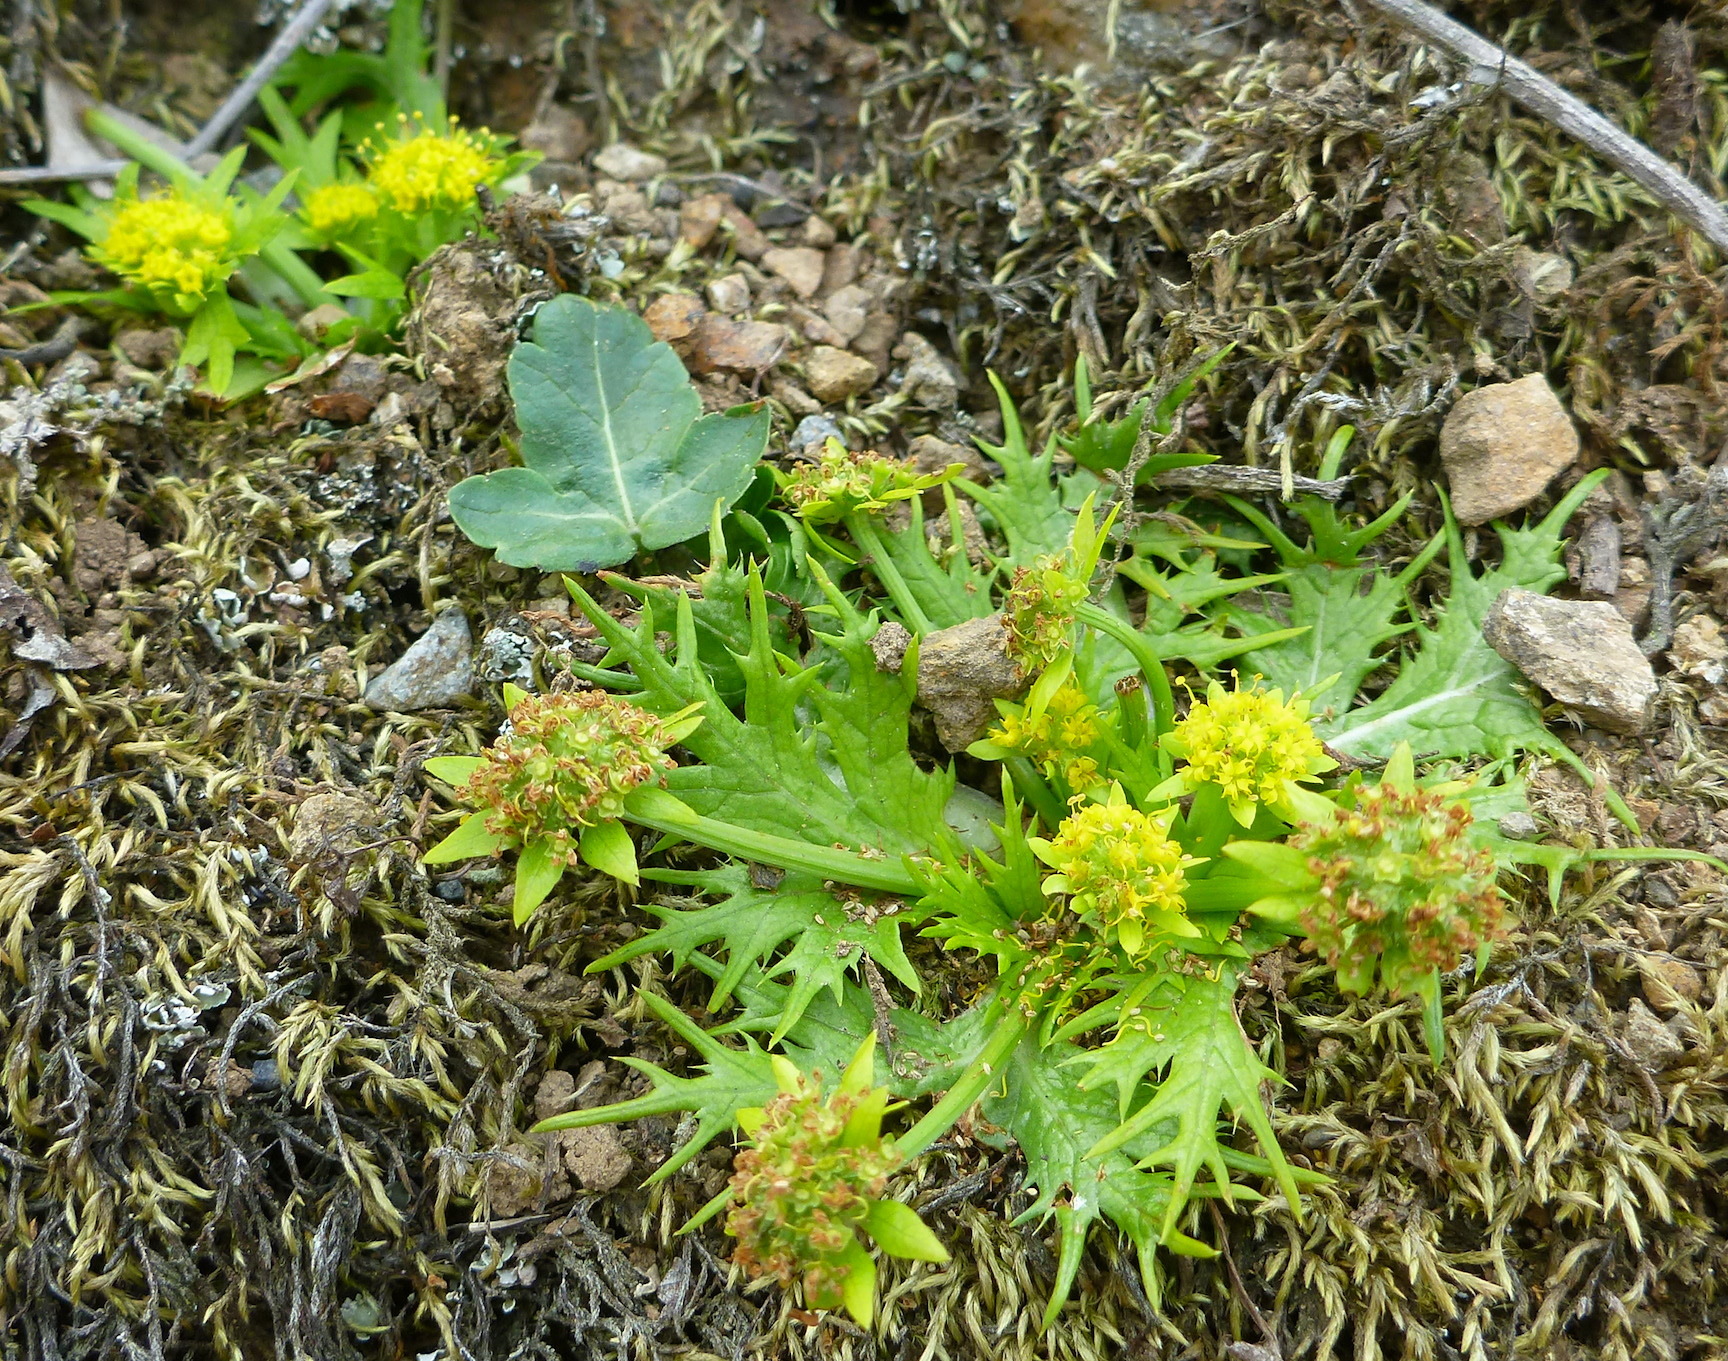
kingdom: Plantae
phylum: Tracheophyta
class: Magnoliopsida
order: Apiales
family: Apiaceae
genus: Sanicula
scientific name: Sanicula arctopoides
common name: Footsteps-of-spring
